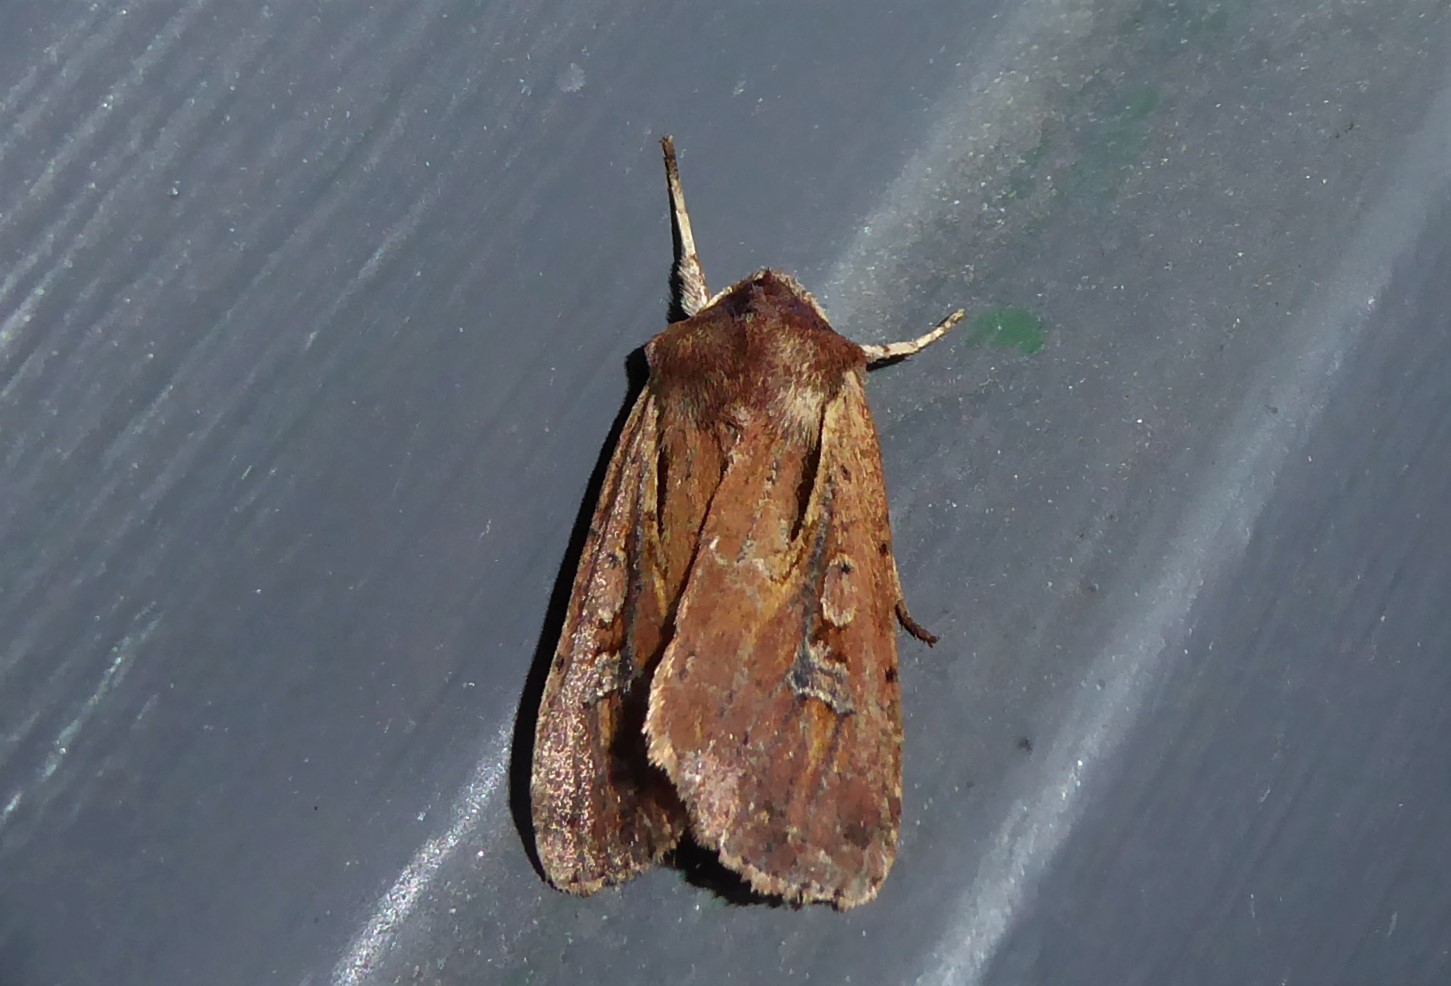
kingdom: Animalia
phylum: Arthropoda
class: Insecta
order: Lepidoptera
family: Noctuidae
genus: Ichneutica
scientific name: Ichneutica atristriga
